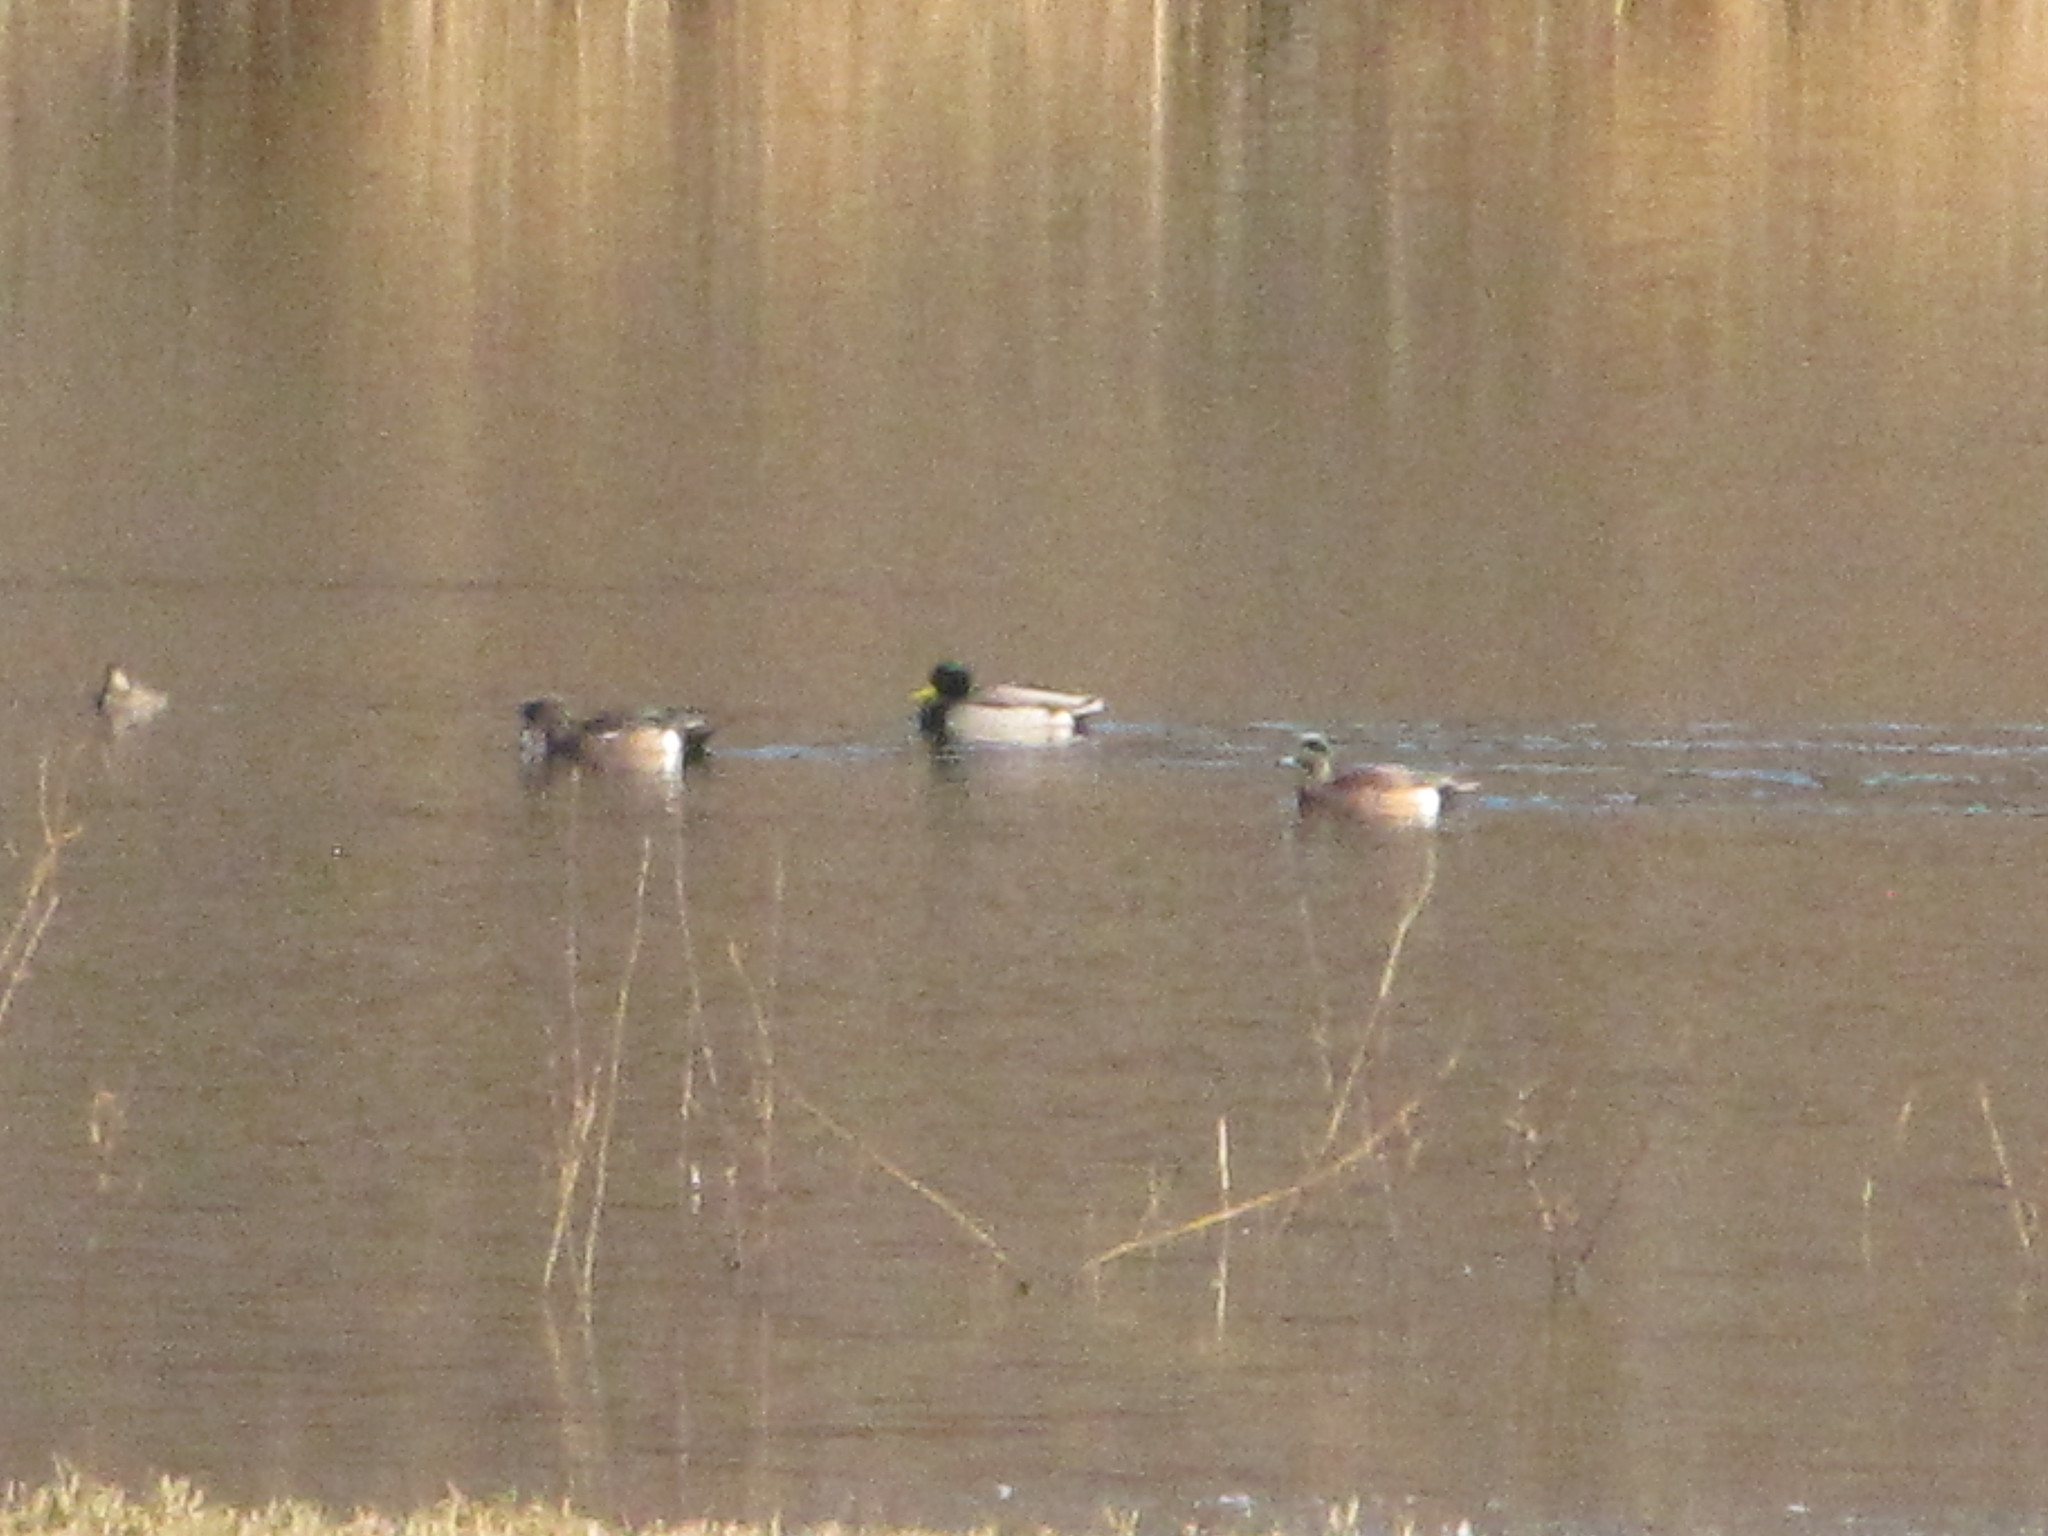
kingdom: Animalia
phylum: Chordata
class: Aves
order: Anseriformes
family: Anatidae
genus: Anas
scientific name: Anas platyrhynchos
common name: Mallard
